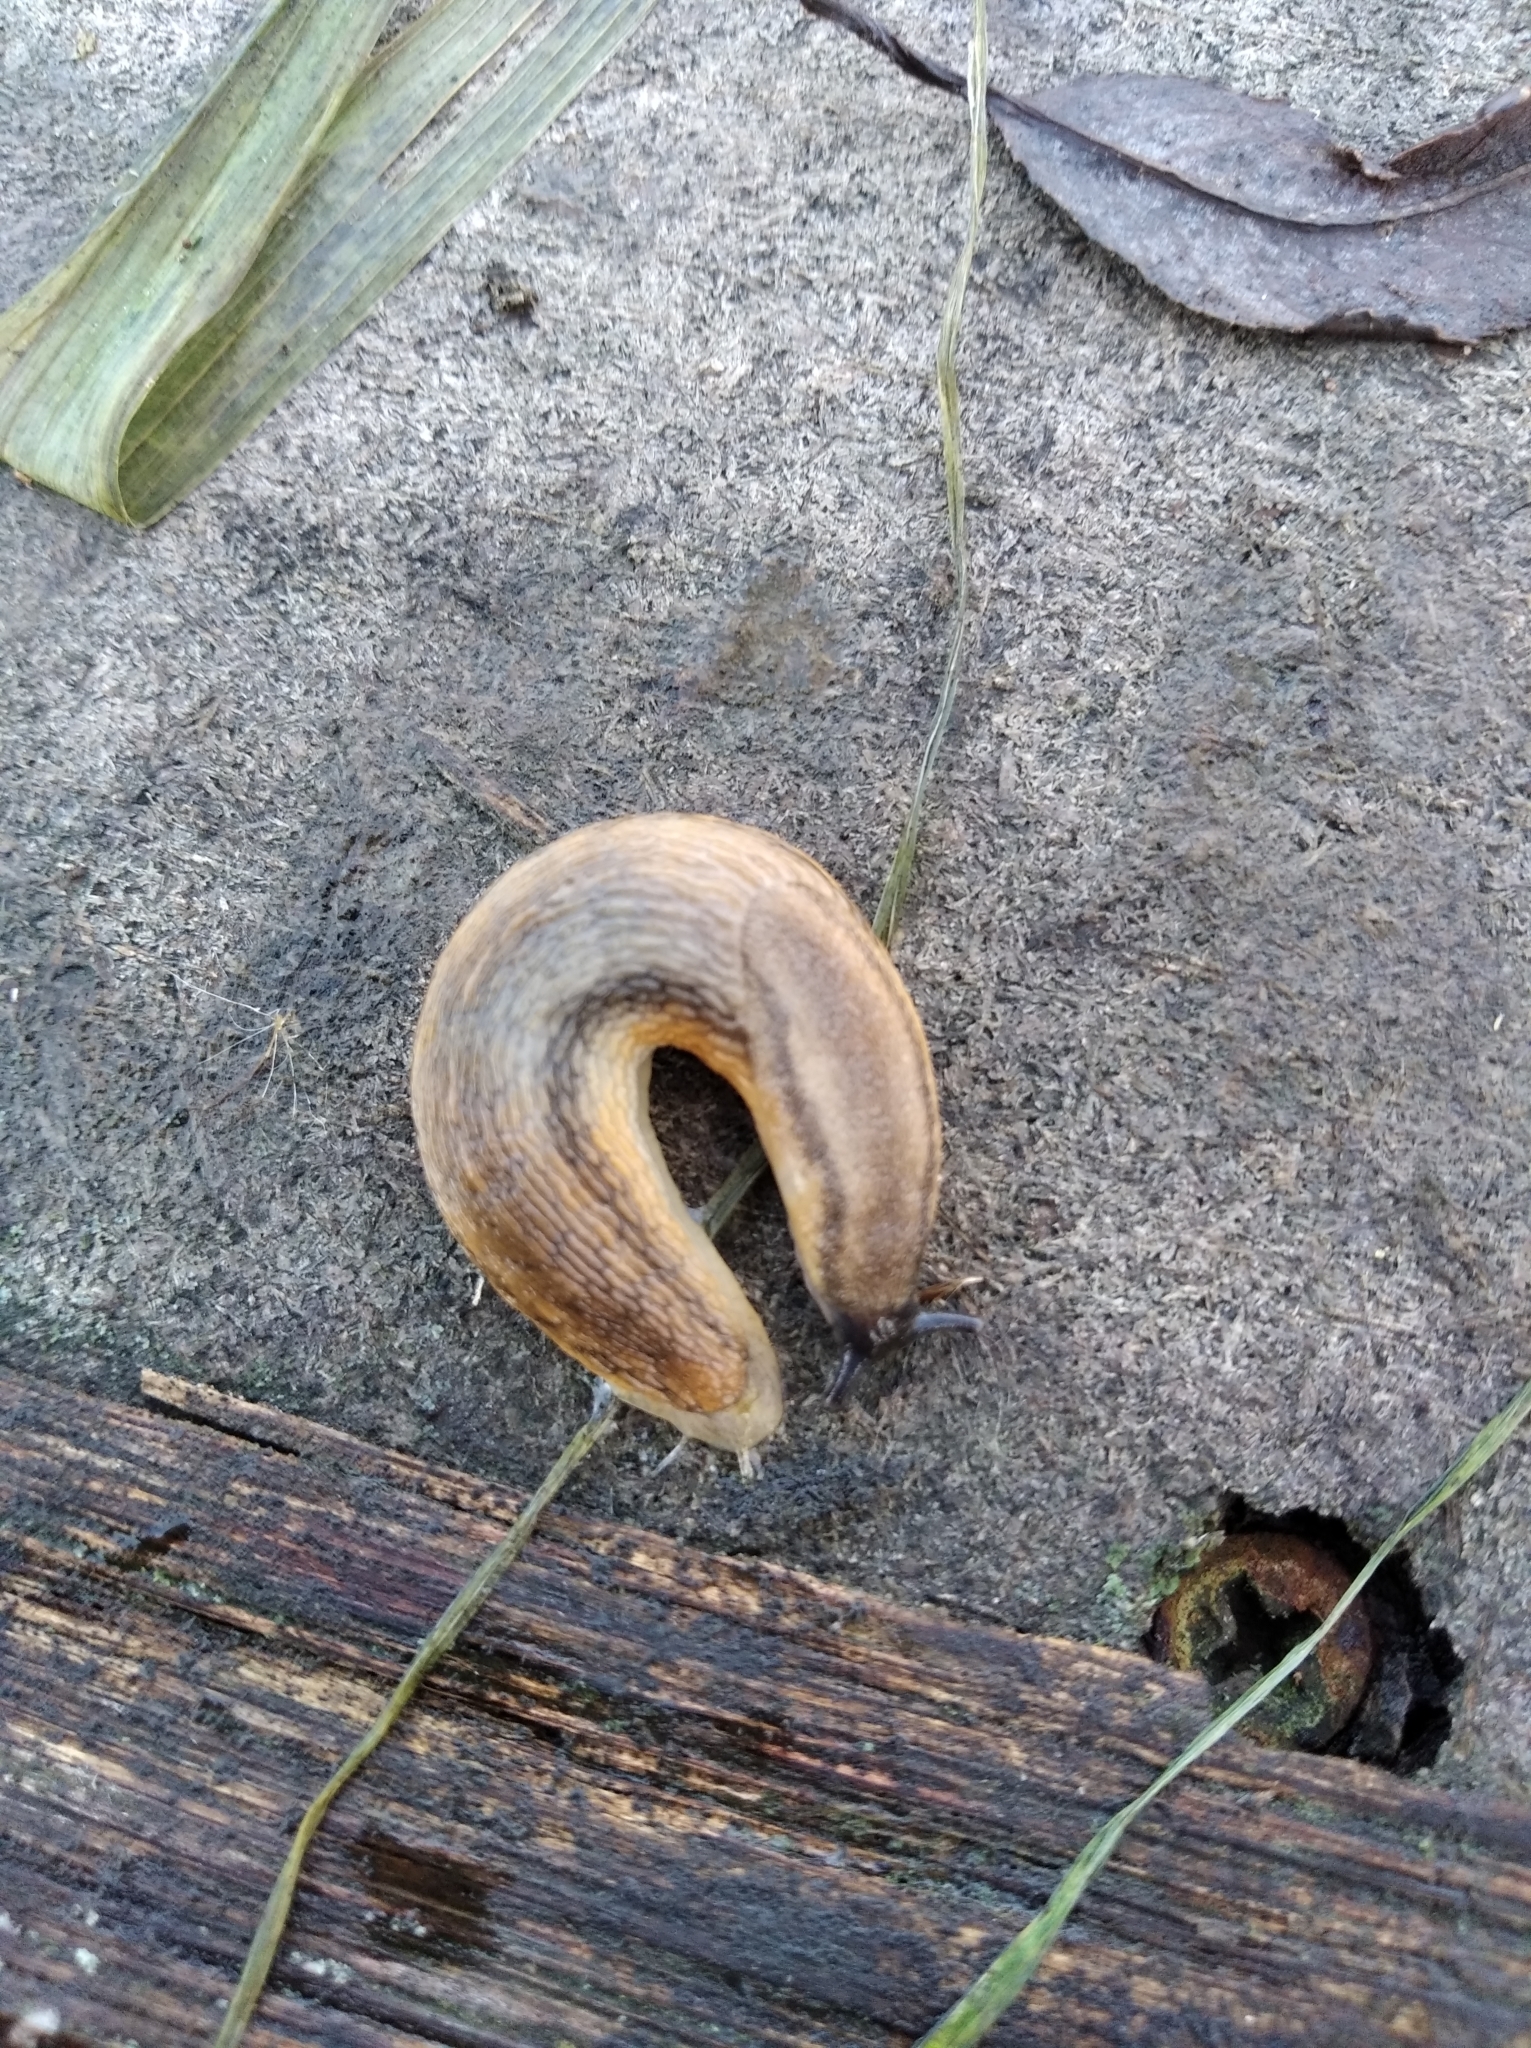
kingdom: Animalia
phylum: Mollusca
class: Gastropoda
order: Stylommatophora
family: Arionidae
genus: Arion
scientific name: Arion fasciatus
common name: Orange-banded arion
